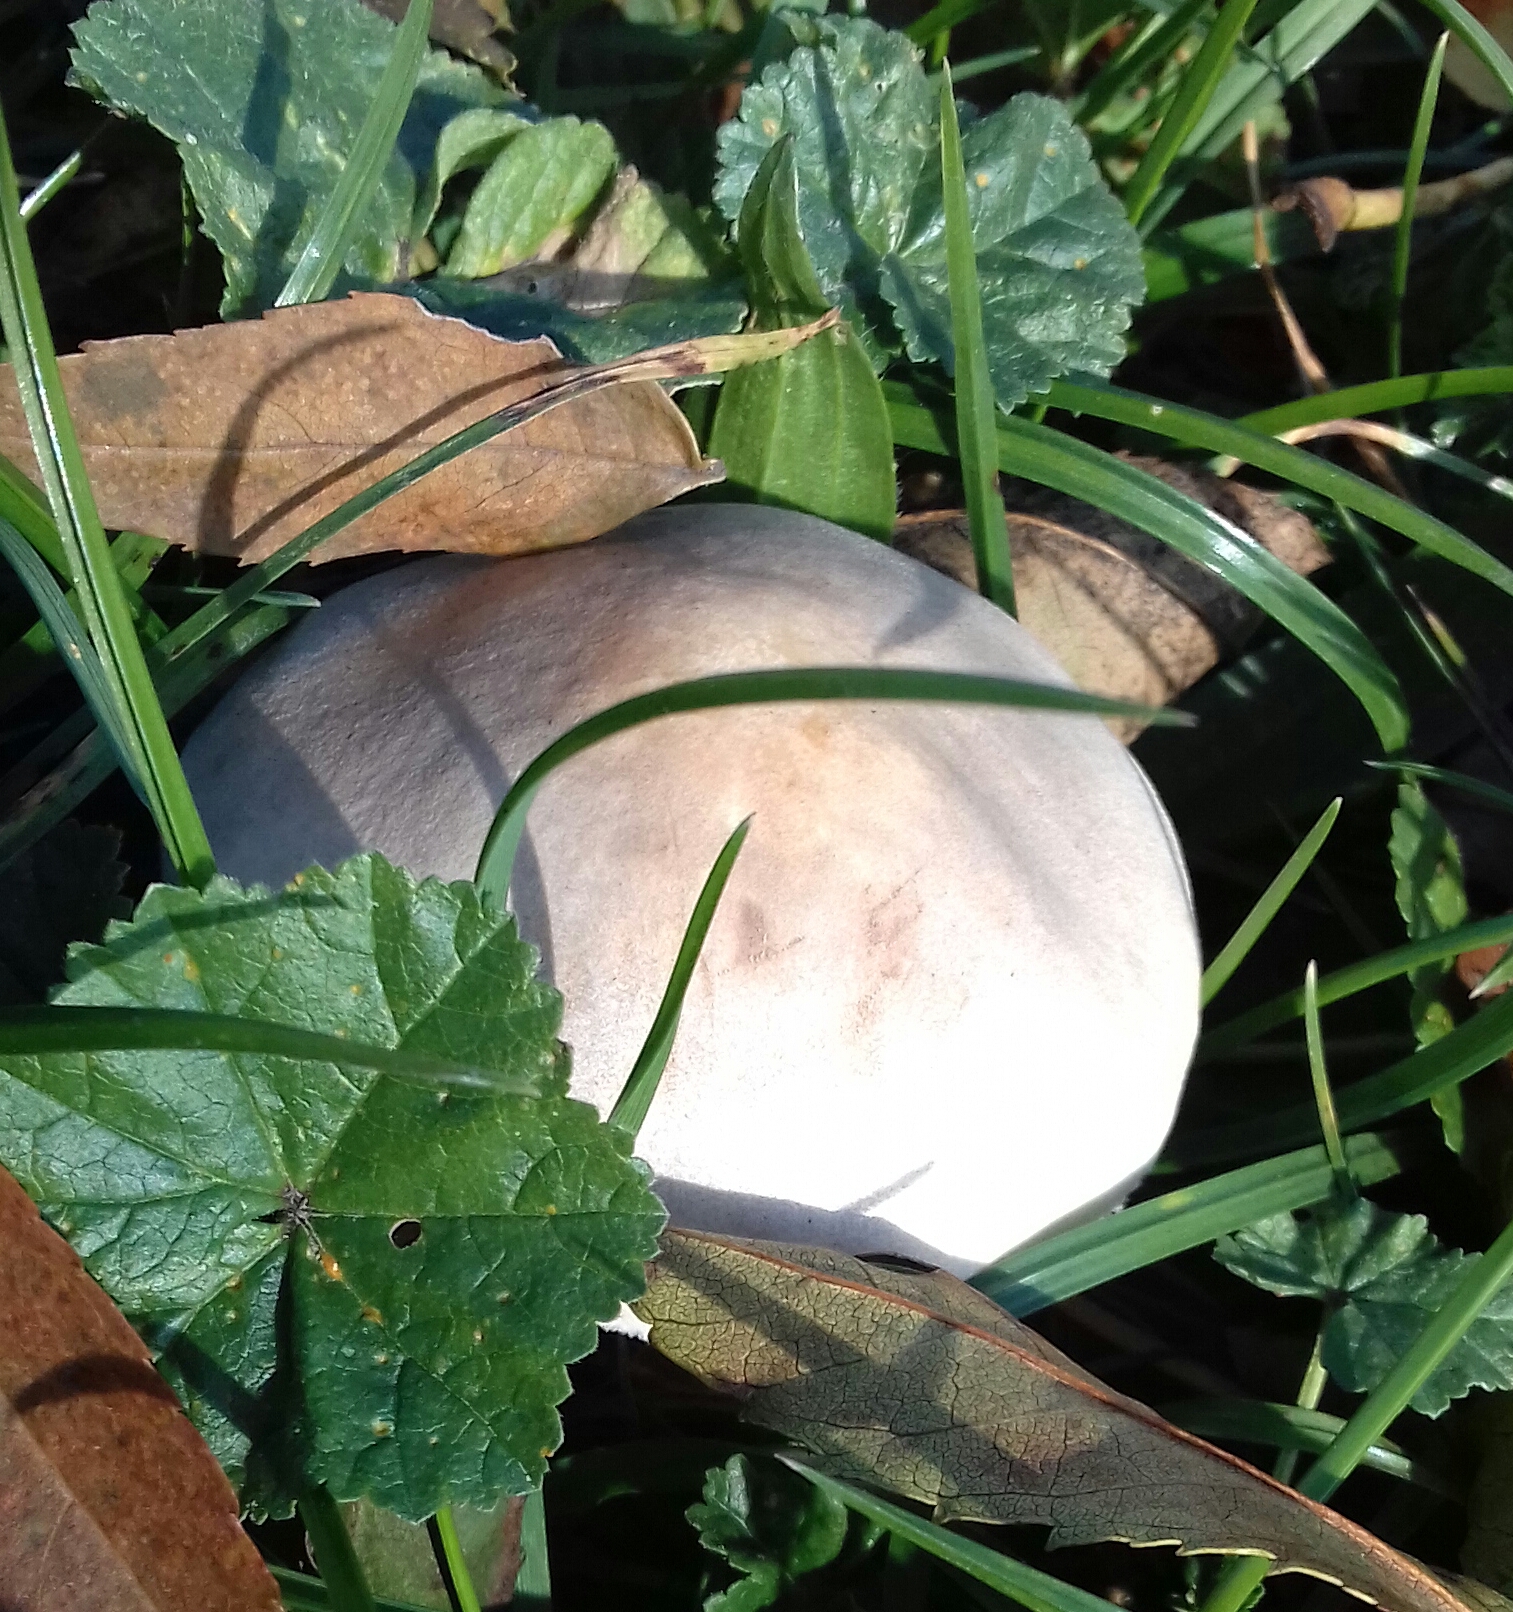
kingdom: Fungi
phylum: Basidiomycota
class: Agaricomycetes
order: Agaricales
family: Agaricaceae
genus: Leucoagaricus
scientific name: Leucoagaricus leucothites
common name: White dapperling
